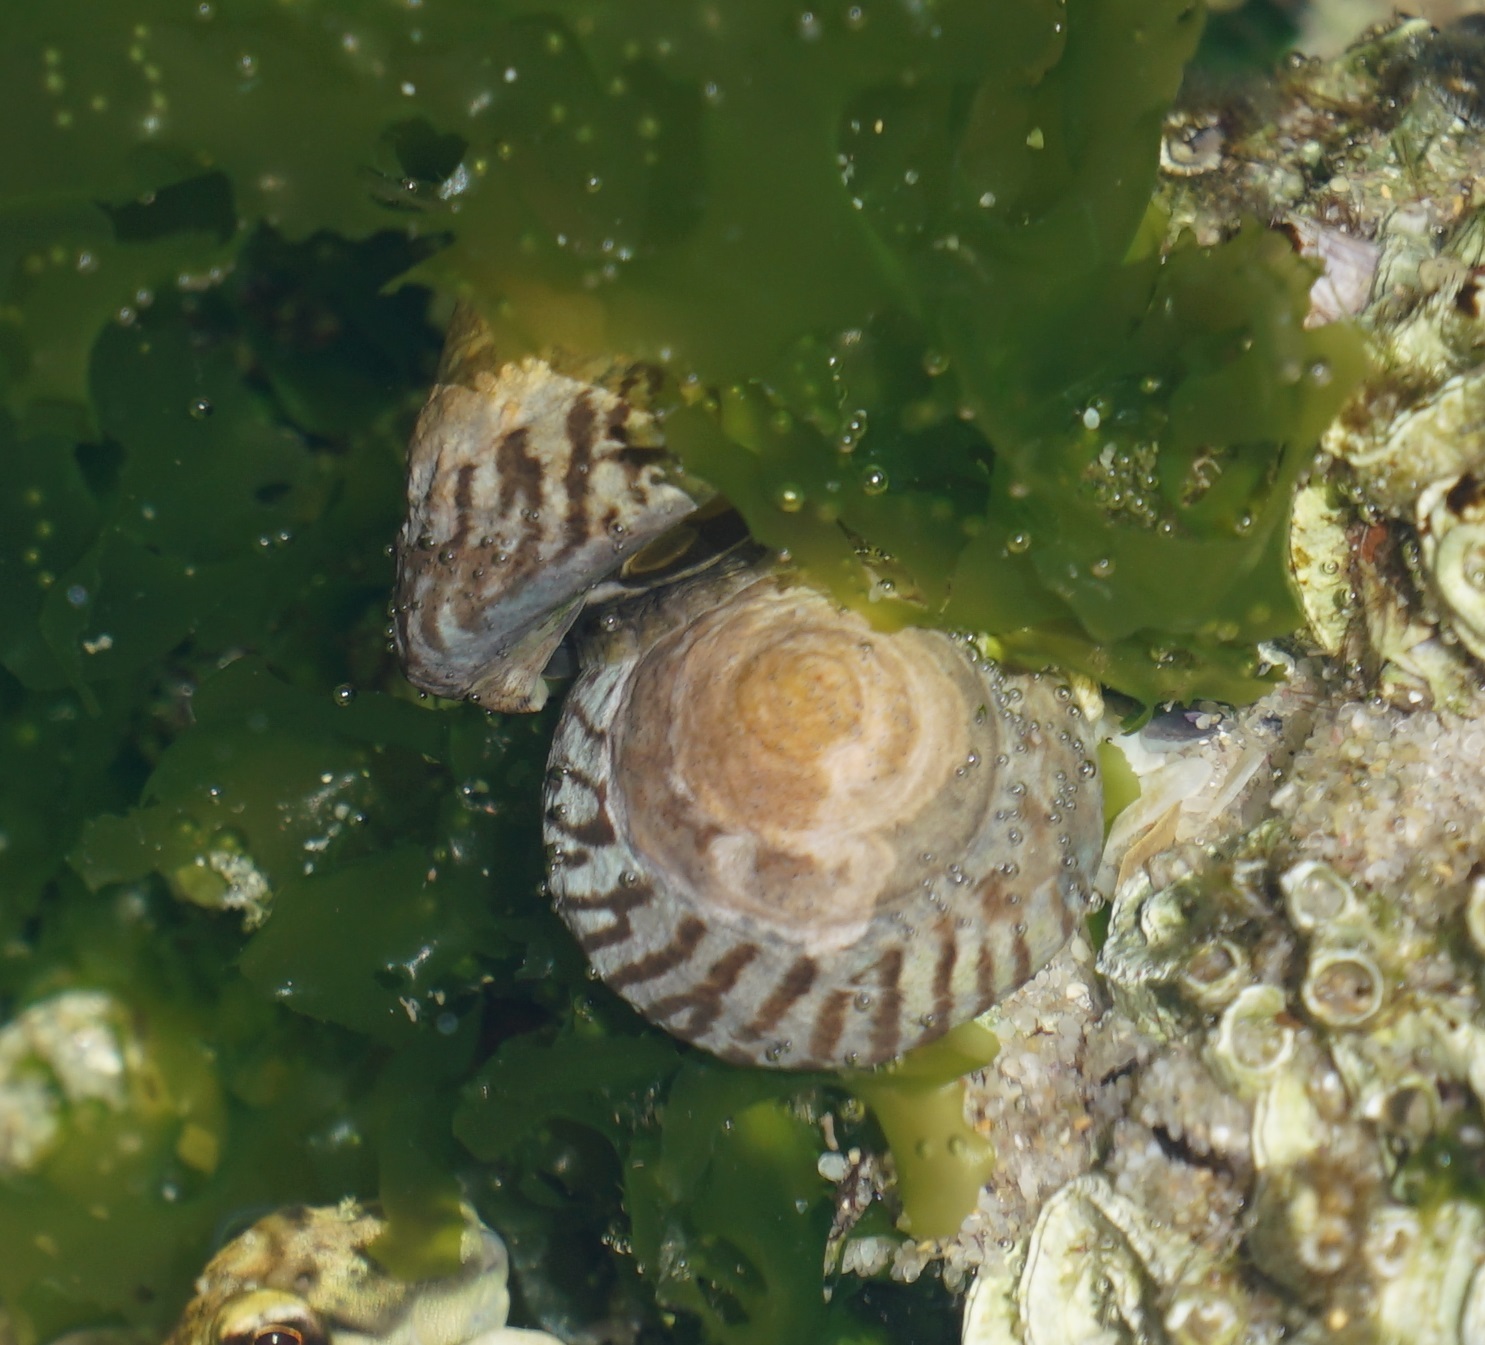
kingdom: Animalia
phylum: Mollusca
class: Gastropoda
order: Littorinimorpha
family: Littorinidae
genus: Bembicium
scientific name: Bembicium nanum
